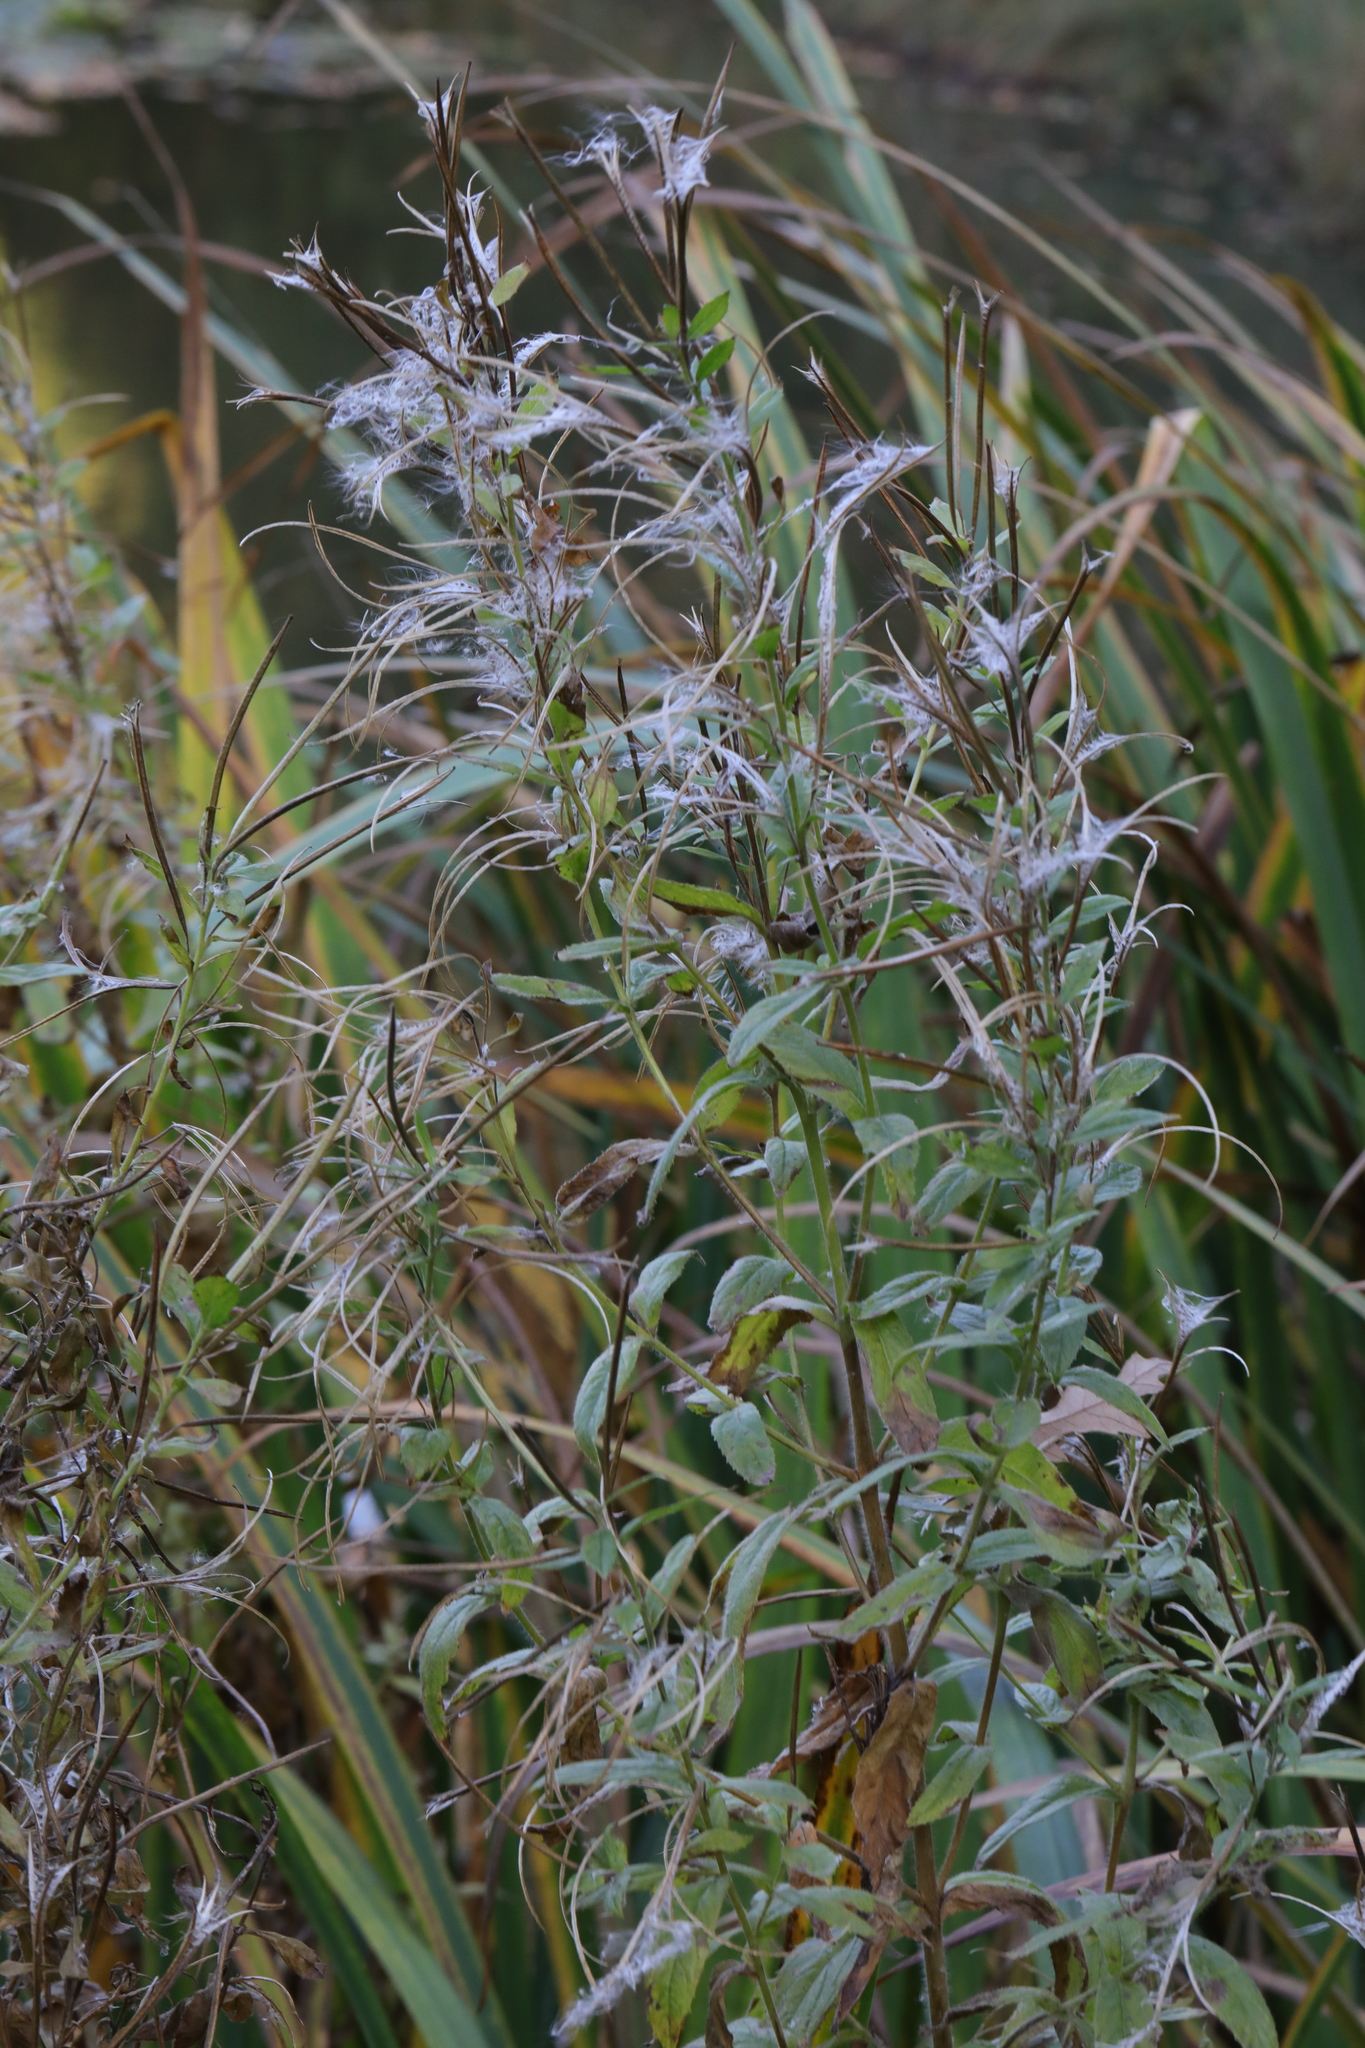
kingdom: Plantae
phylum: Tracheophyta
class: Magnoliopsida
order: Myrtales
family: Onagraceae
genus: Epilobium
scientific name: Epilobium hirsutum
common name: Great willowherb
